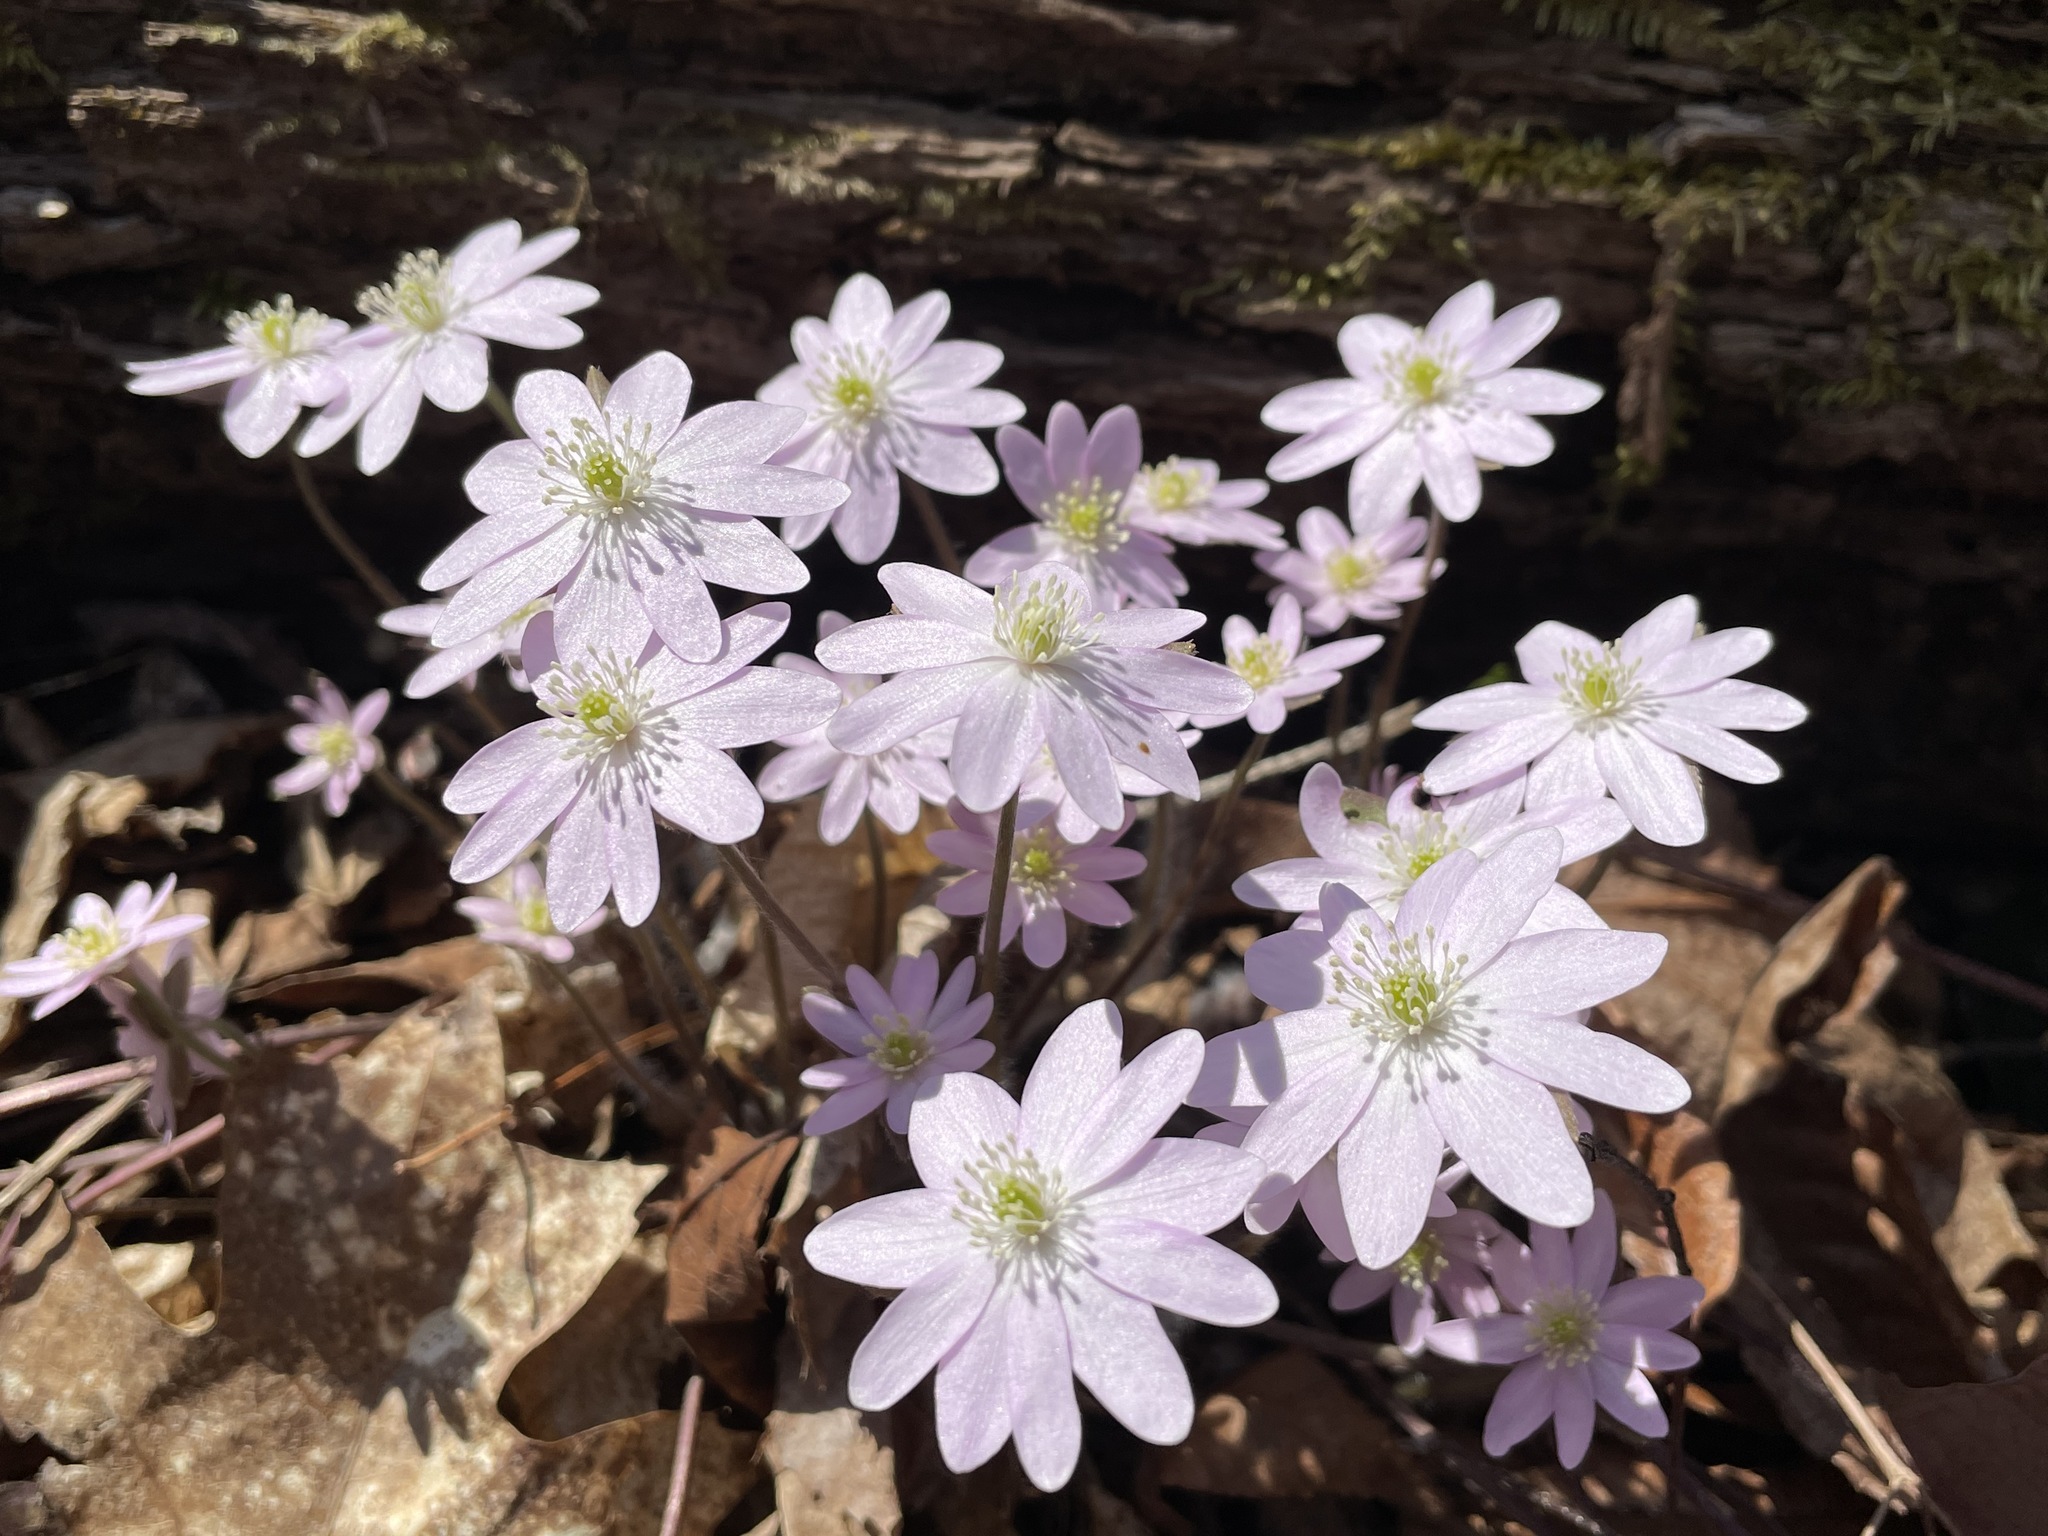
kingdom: Plantae
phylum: Tracheophyta
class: Magnoliopsida
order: Ranunculales
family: Ranunculaceae
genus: Hepatica
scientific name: Hepatica acutiloba
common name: Sharp-lobed hepatica
